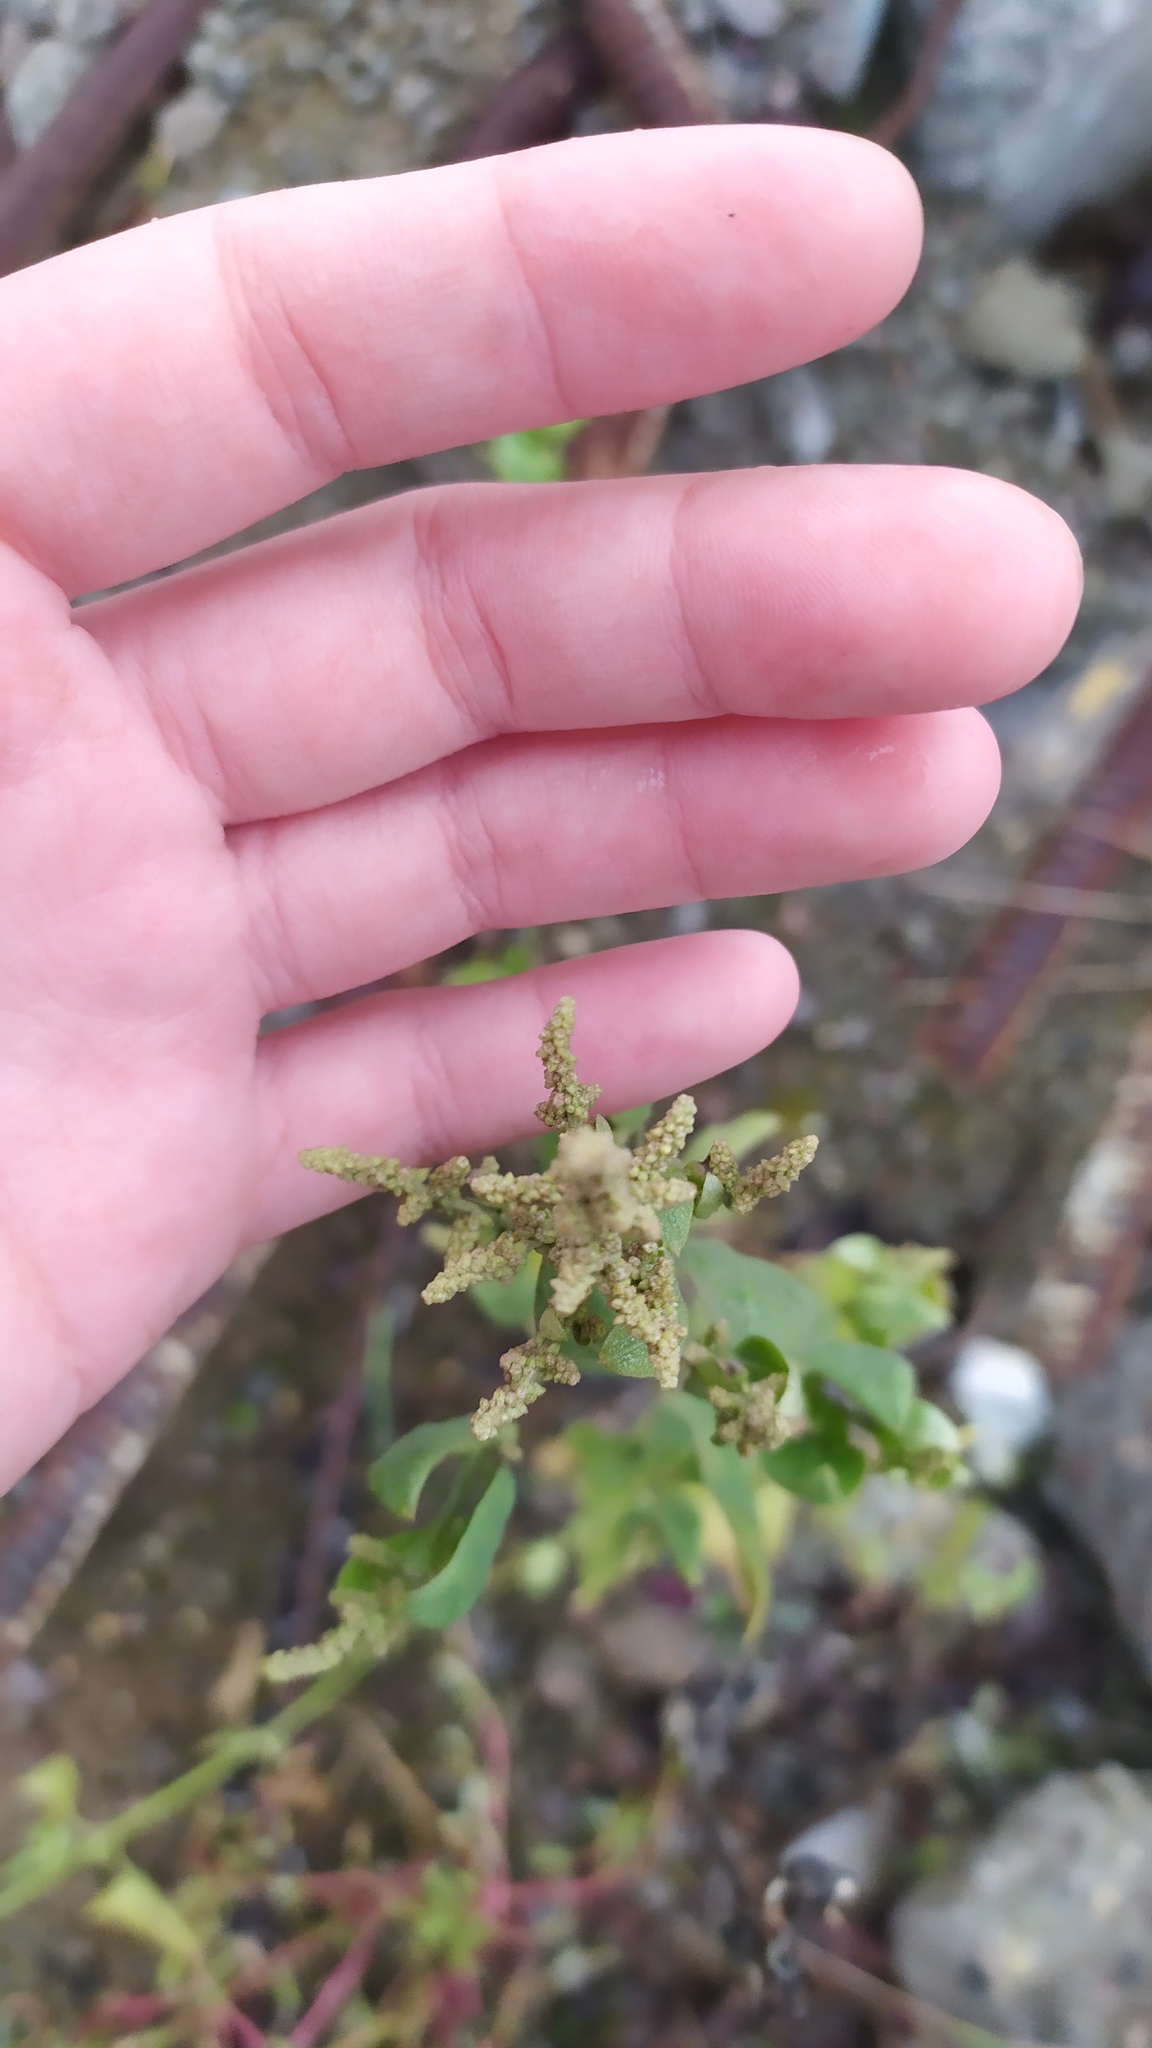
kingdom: Plantae
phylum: Tracheophyta
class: Magnoliopsida
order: Caryophyllales
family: Amaranthaceae
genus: Atriplex
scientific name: Atriplex sagittata
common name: Purple orache
